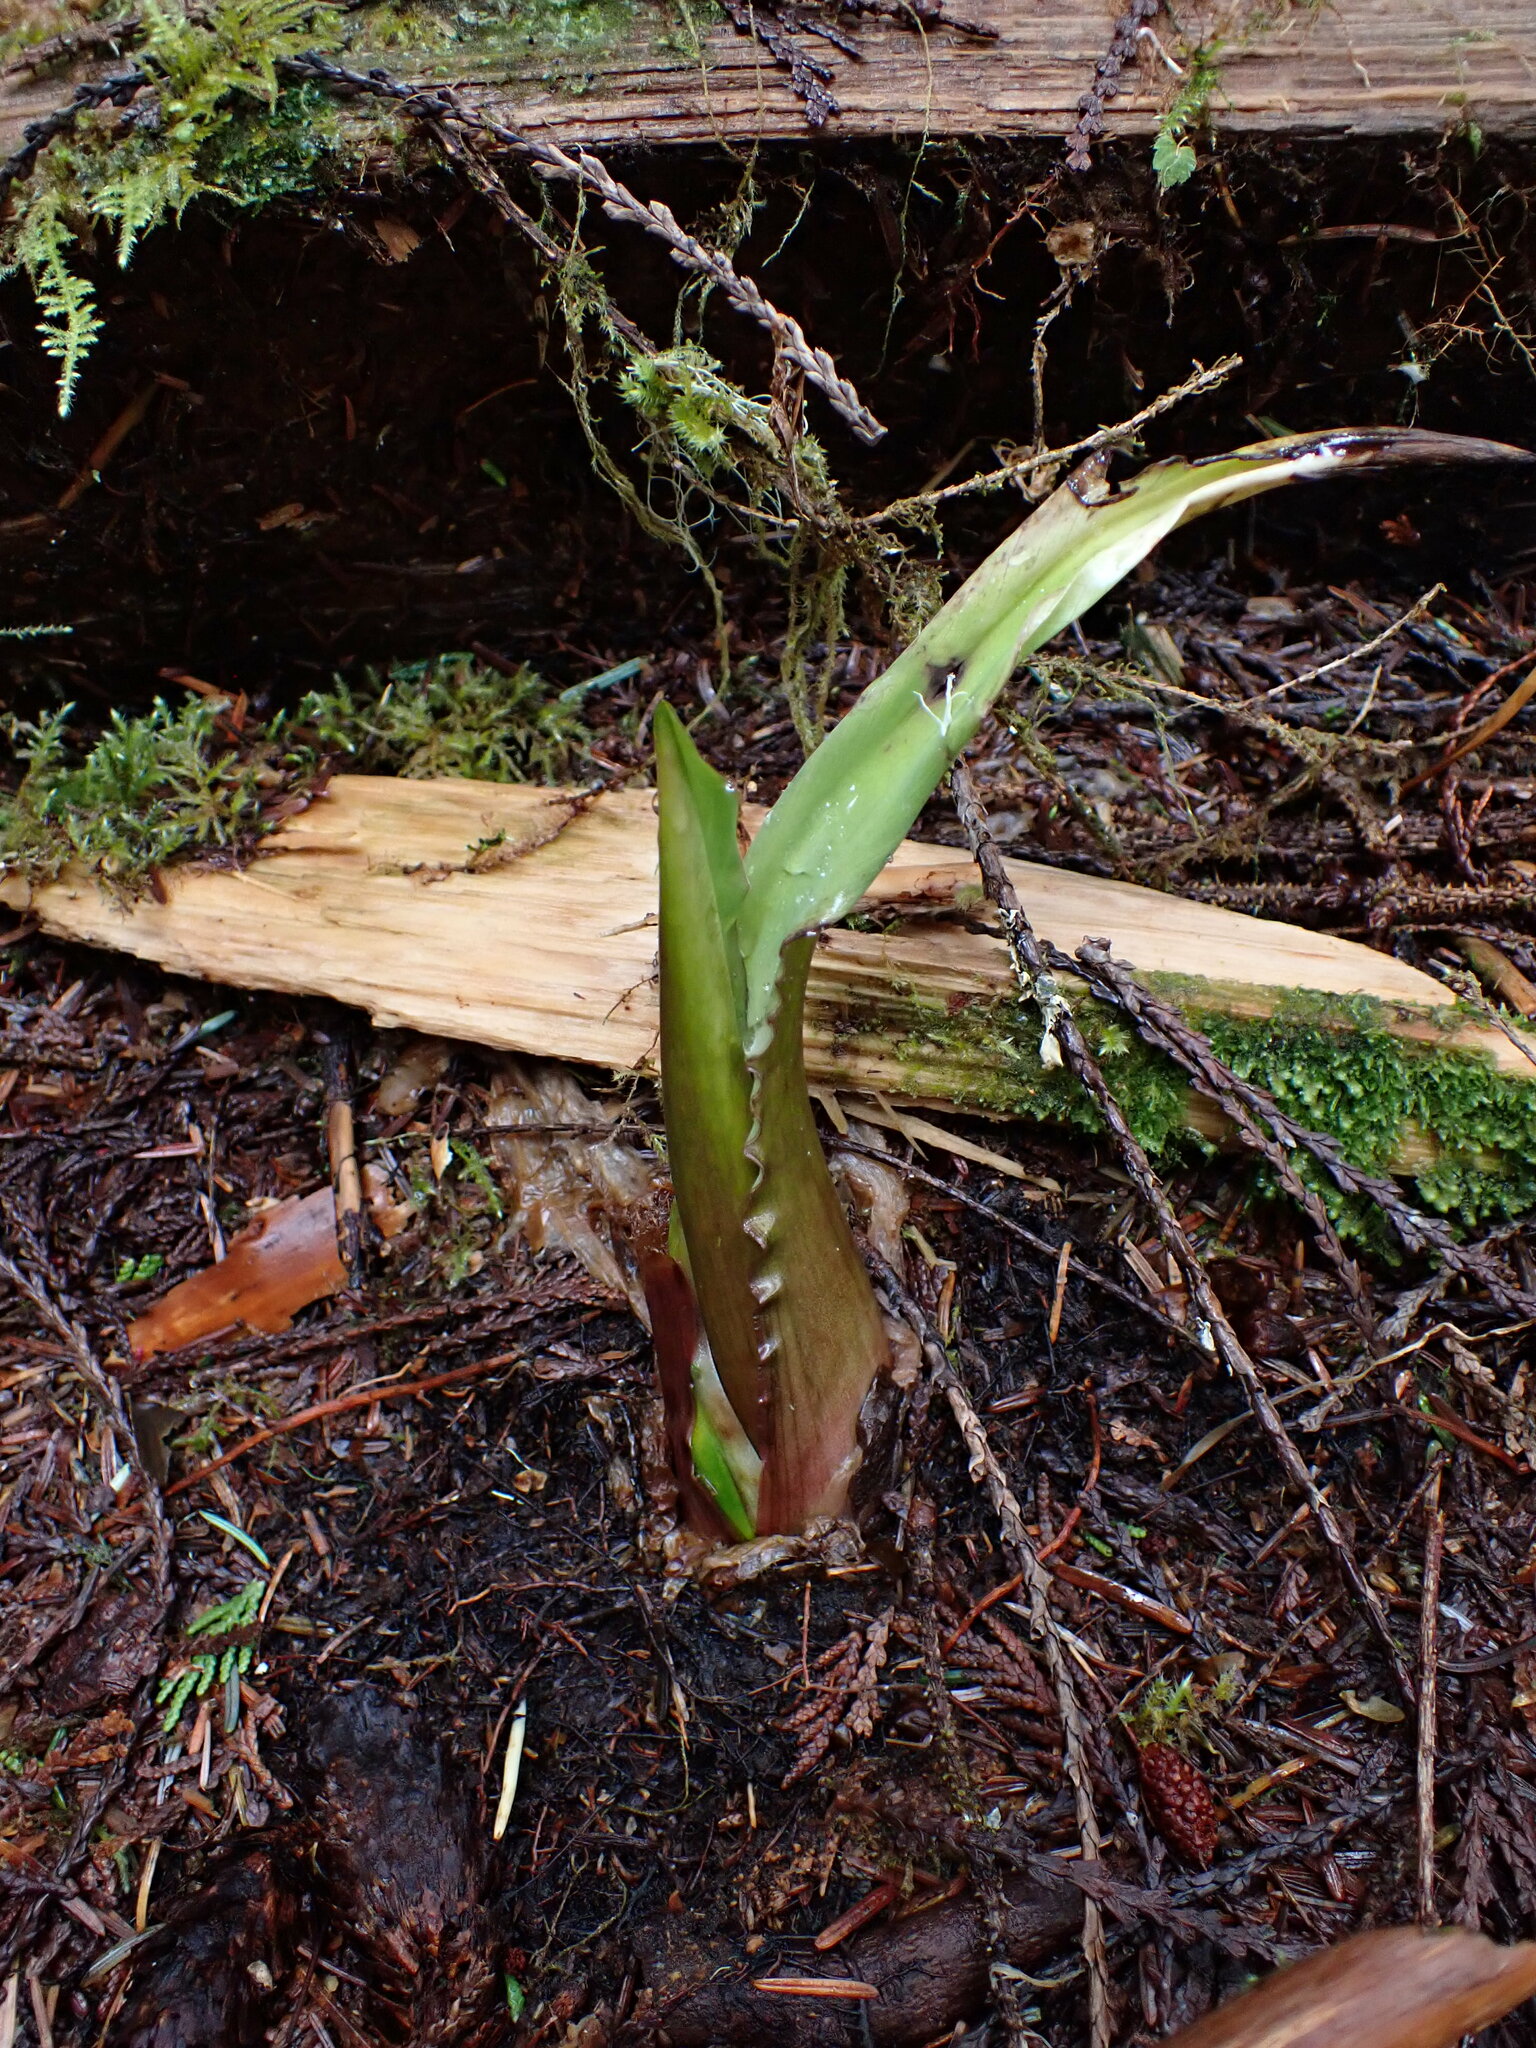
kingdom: Plantae
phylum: Tracheophyta
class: Liliopsida
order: Alismatales
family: Araceae
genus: Lysichiton
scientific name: Lysichiton americanus
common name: American skunk cabbage
